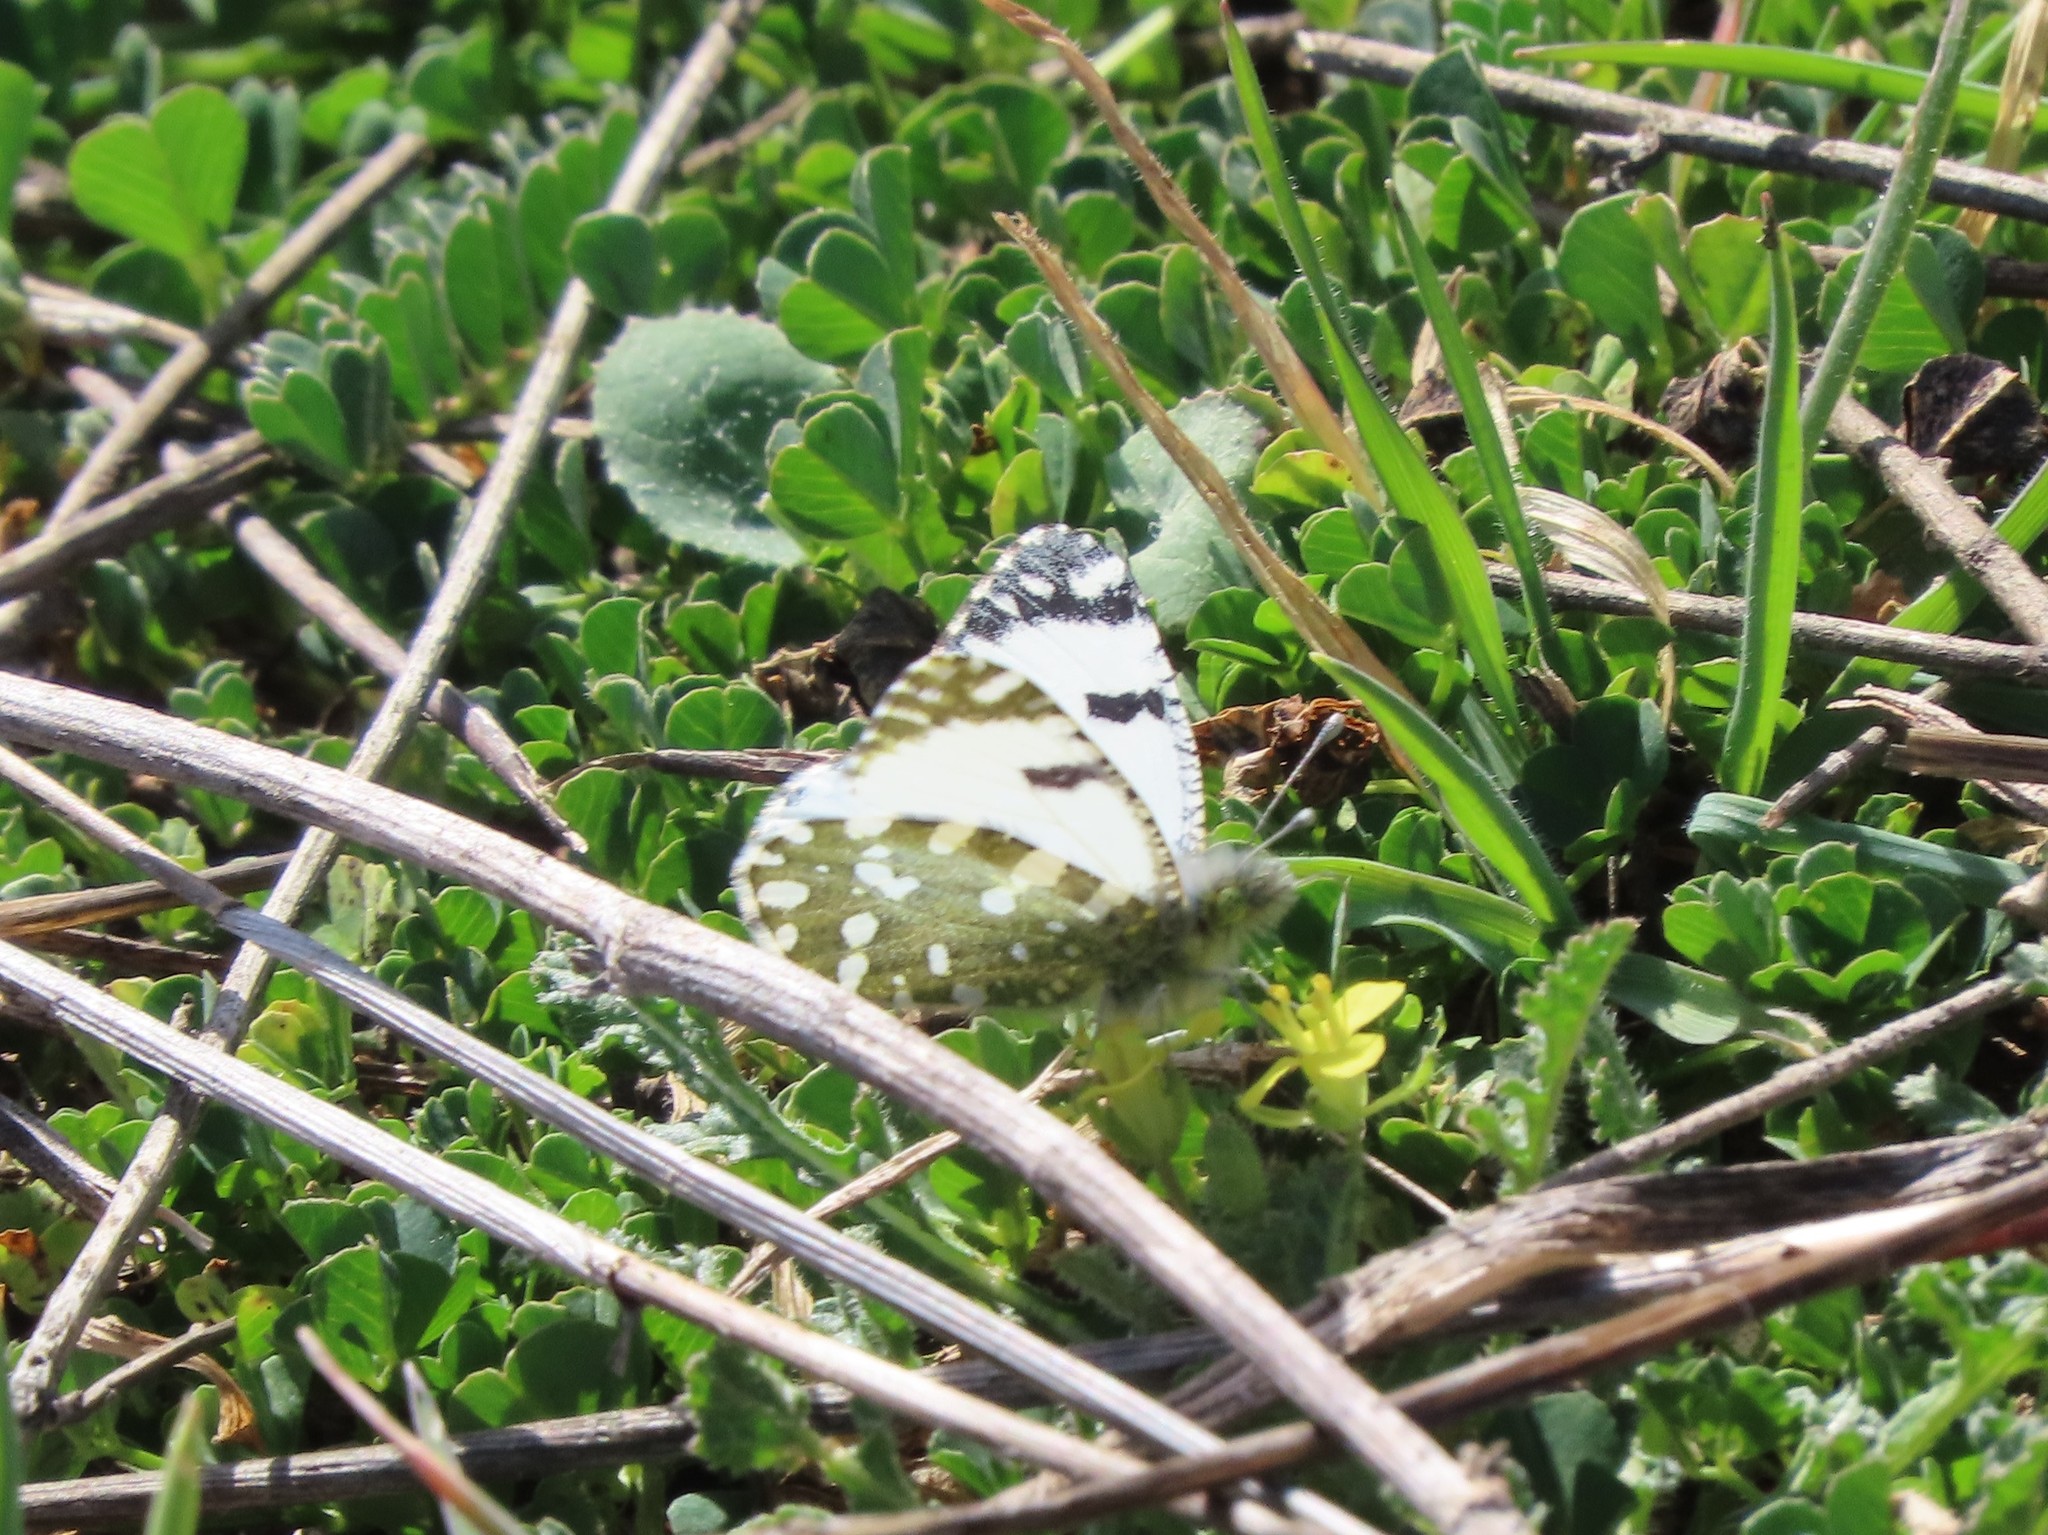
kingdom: Animalia
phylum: Arthropoda
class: Insecta
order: Lepidoptera
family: Pieridae
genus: Euchloe
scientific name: Euchloe crameri
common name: Western dappled white
